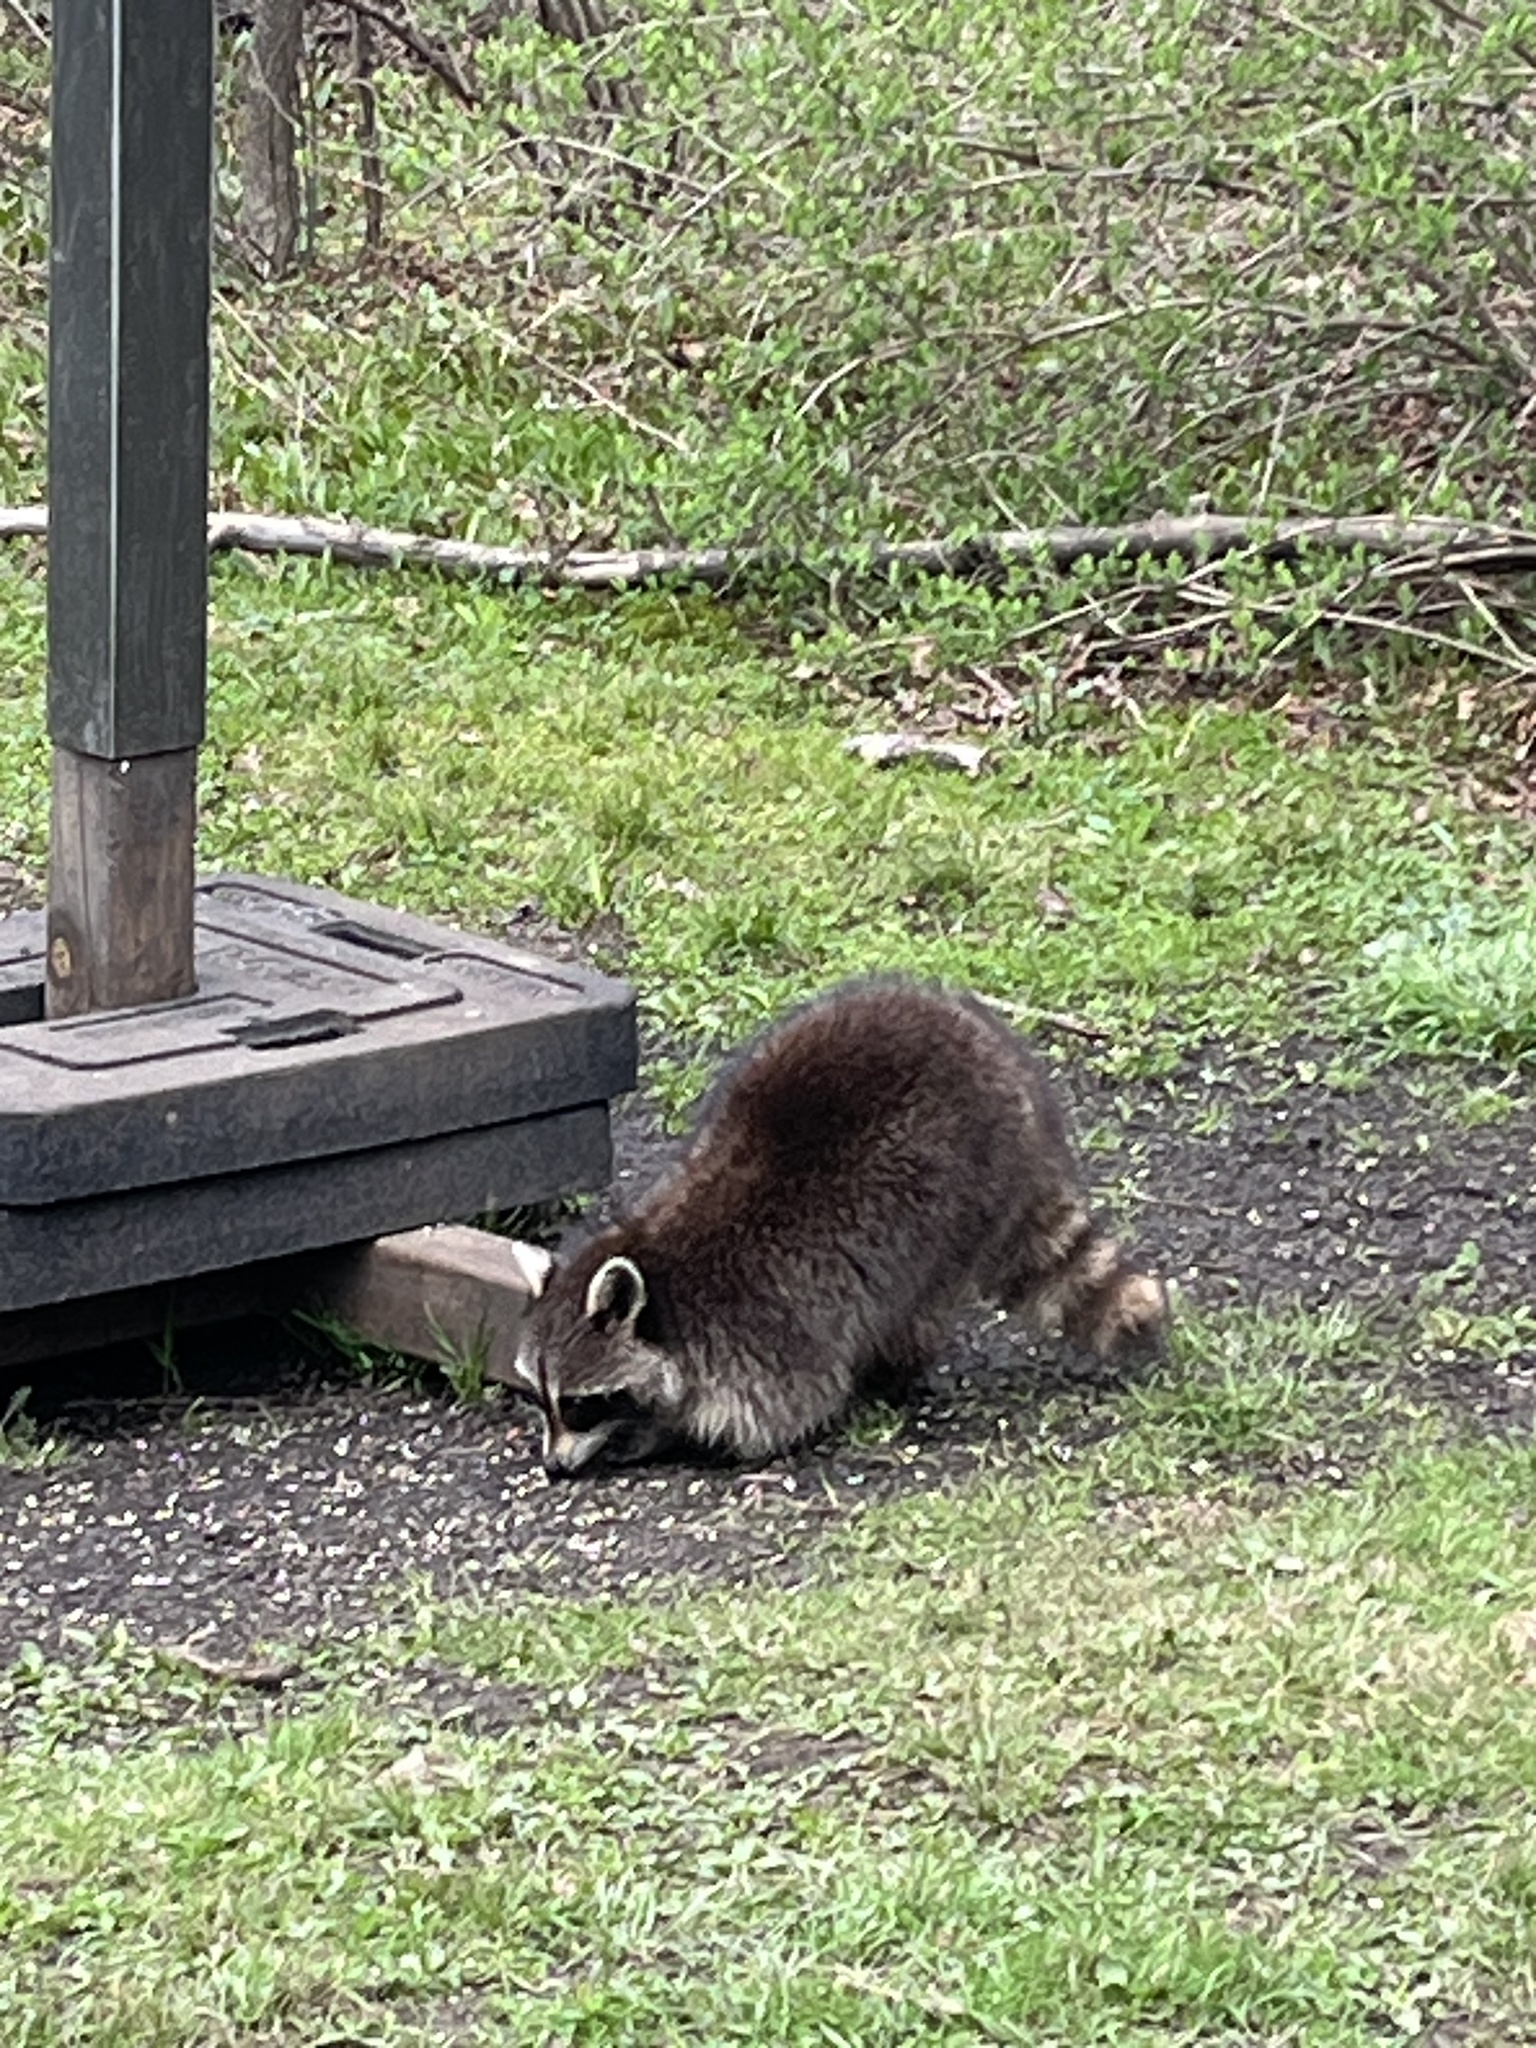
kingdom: Animalia
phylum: Chordata
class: Mammalia
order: Carnivora
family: Procyonidae
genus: Procyon
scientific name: Procyon lotor
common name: Raccoon
